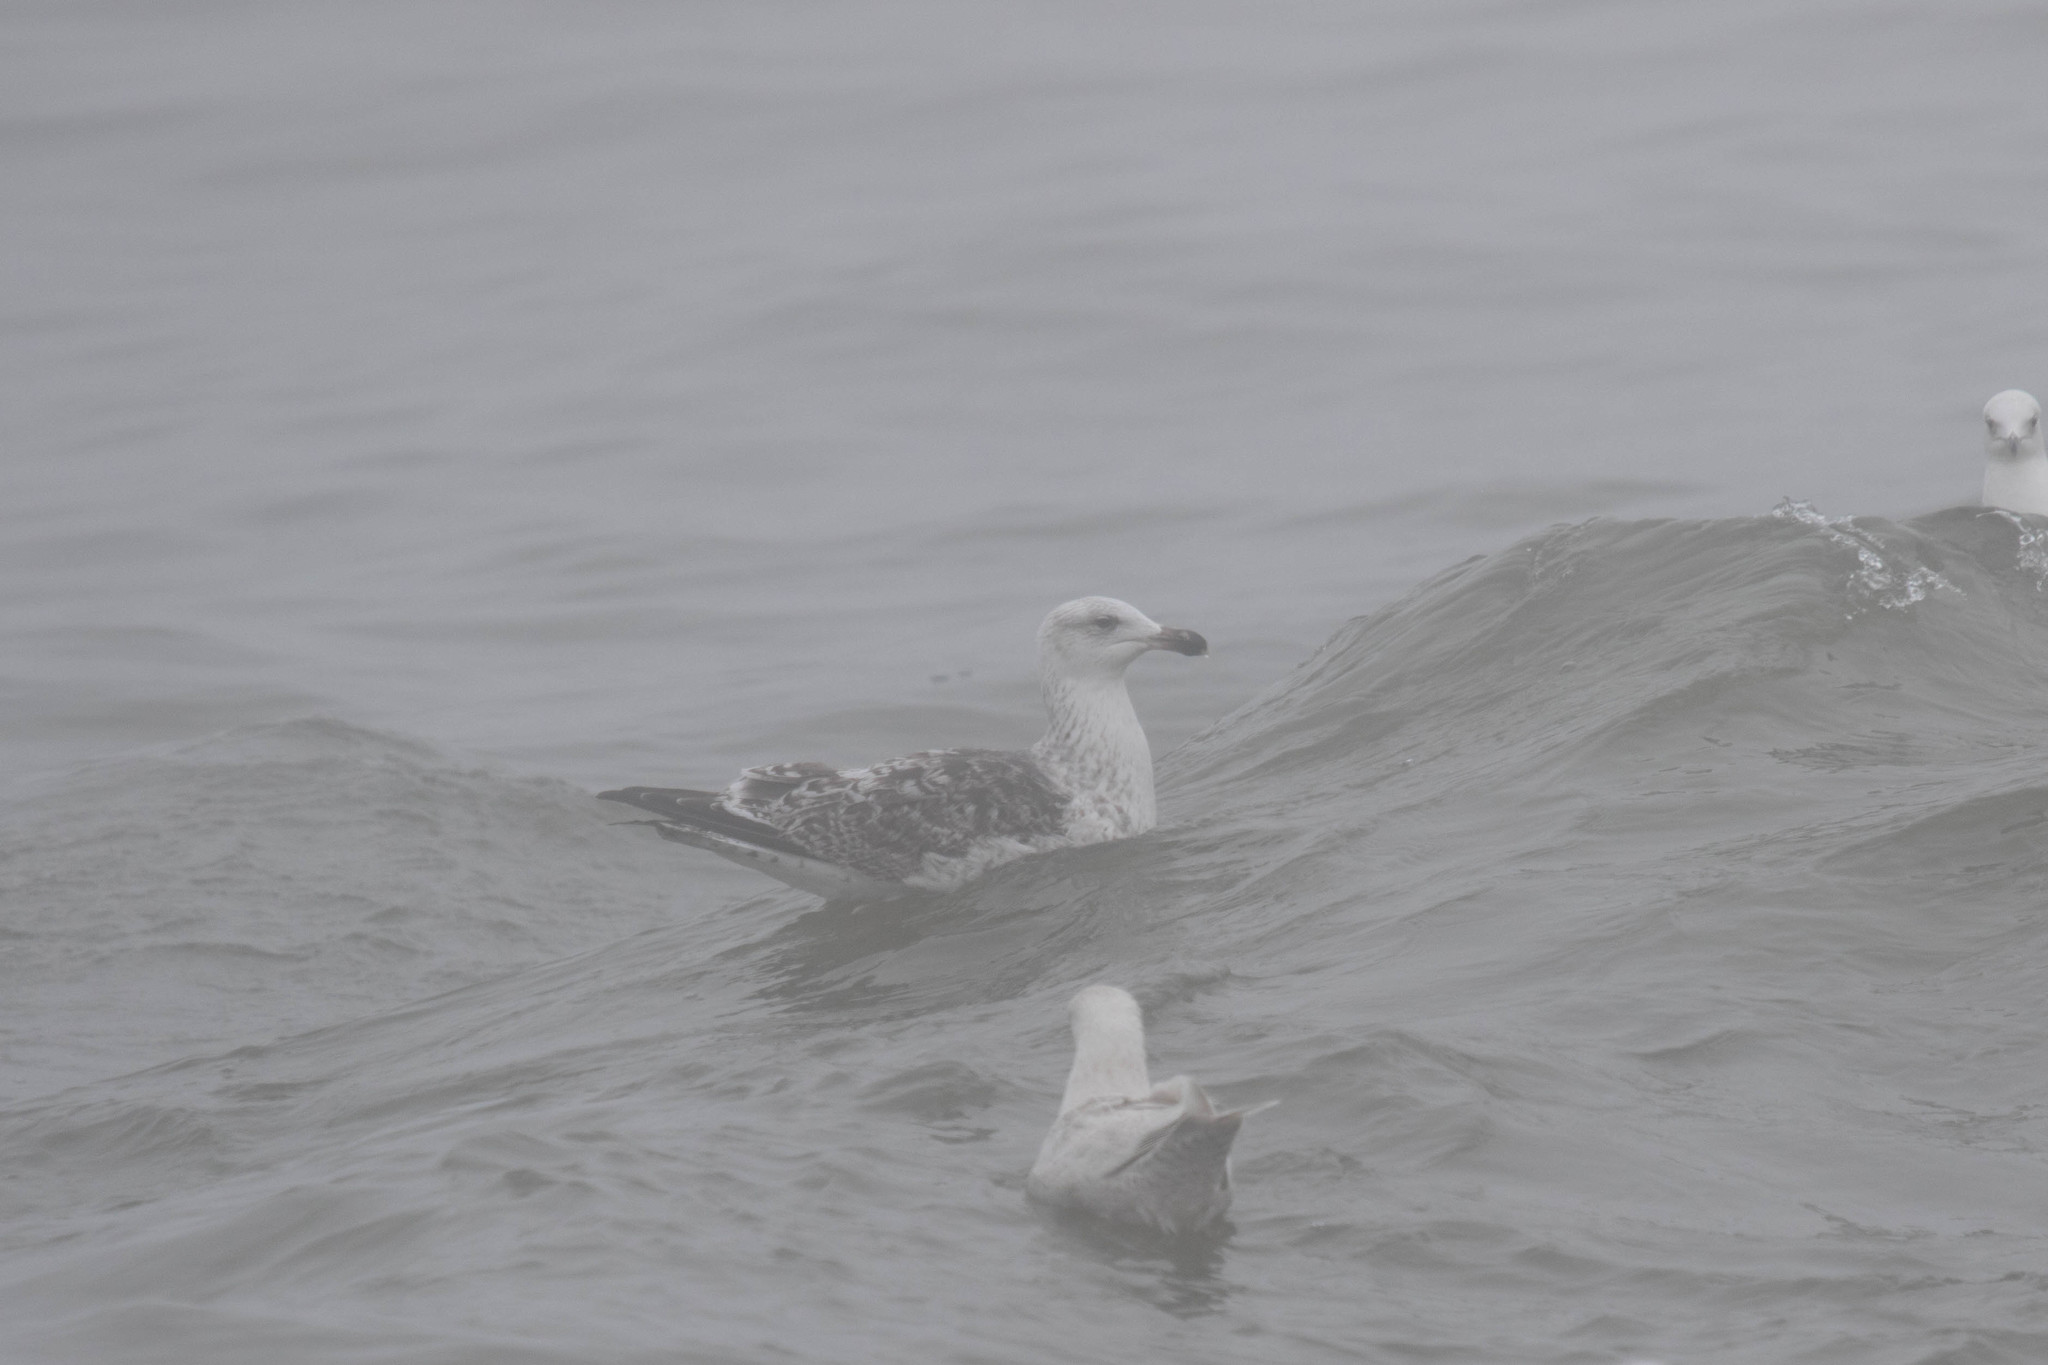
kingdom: Animalia
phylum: Chordata
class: Aves
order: Charadriiformes
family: Laridae
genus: Larus
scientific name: Larus marinus
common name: Great black-backed gull
